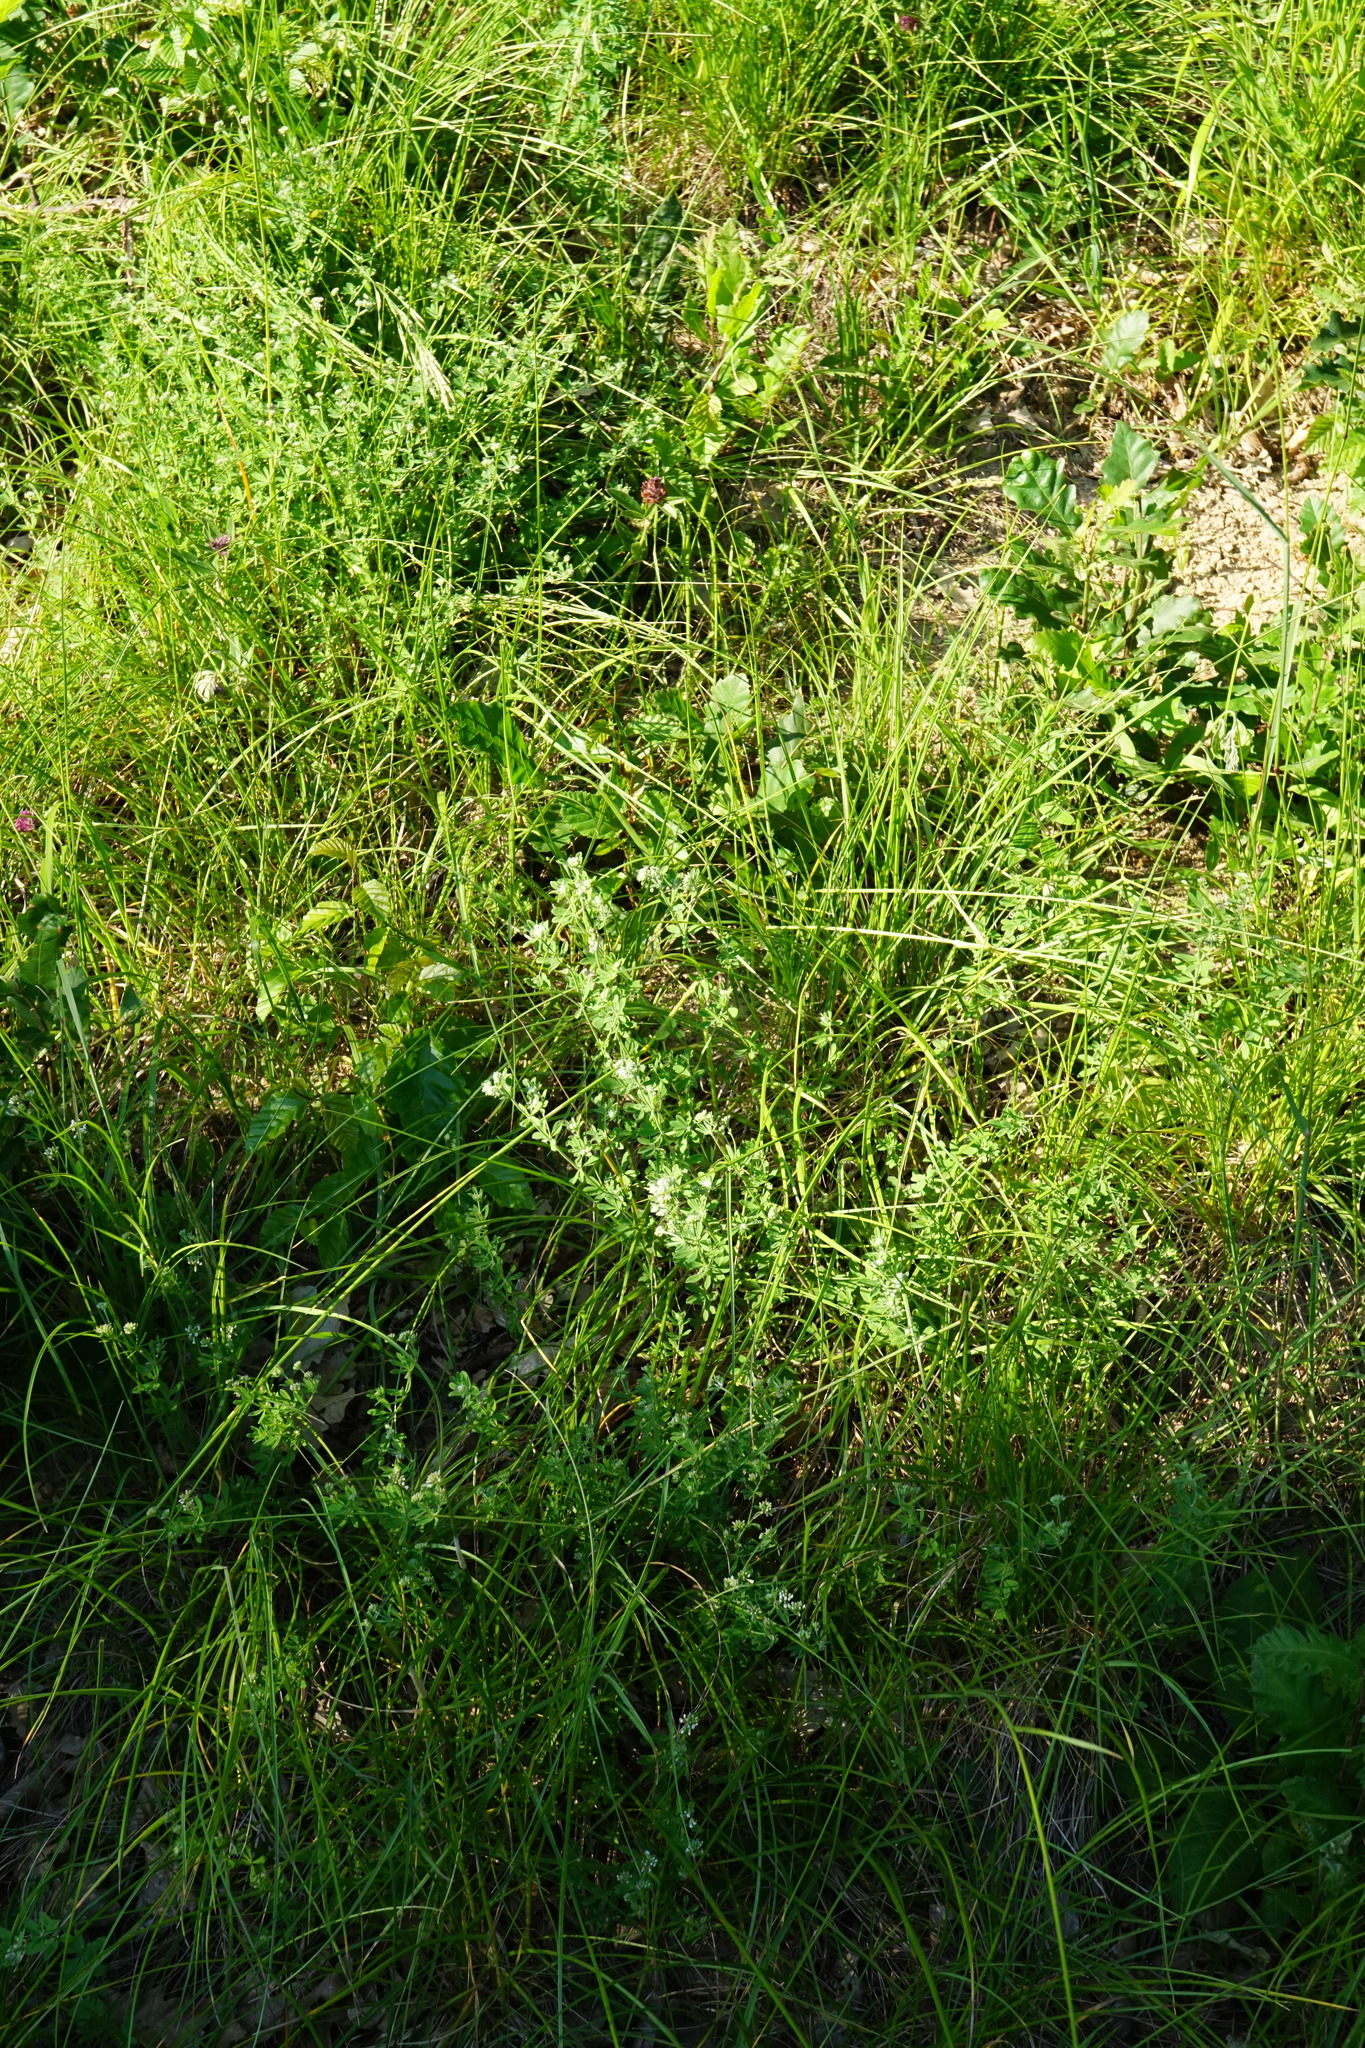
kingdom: Plantae
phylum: Tracheophyta
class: Magnoliopsida
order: Fabales
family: Fabaceae
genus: Lotus
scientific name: Lotus herbaceus
